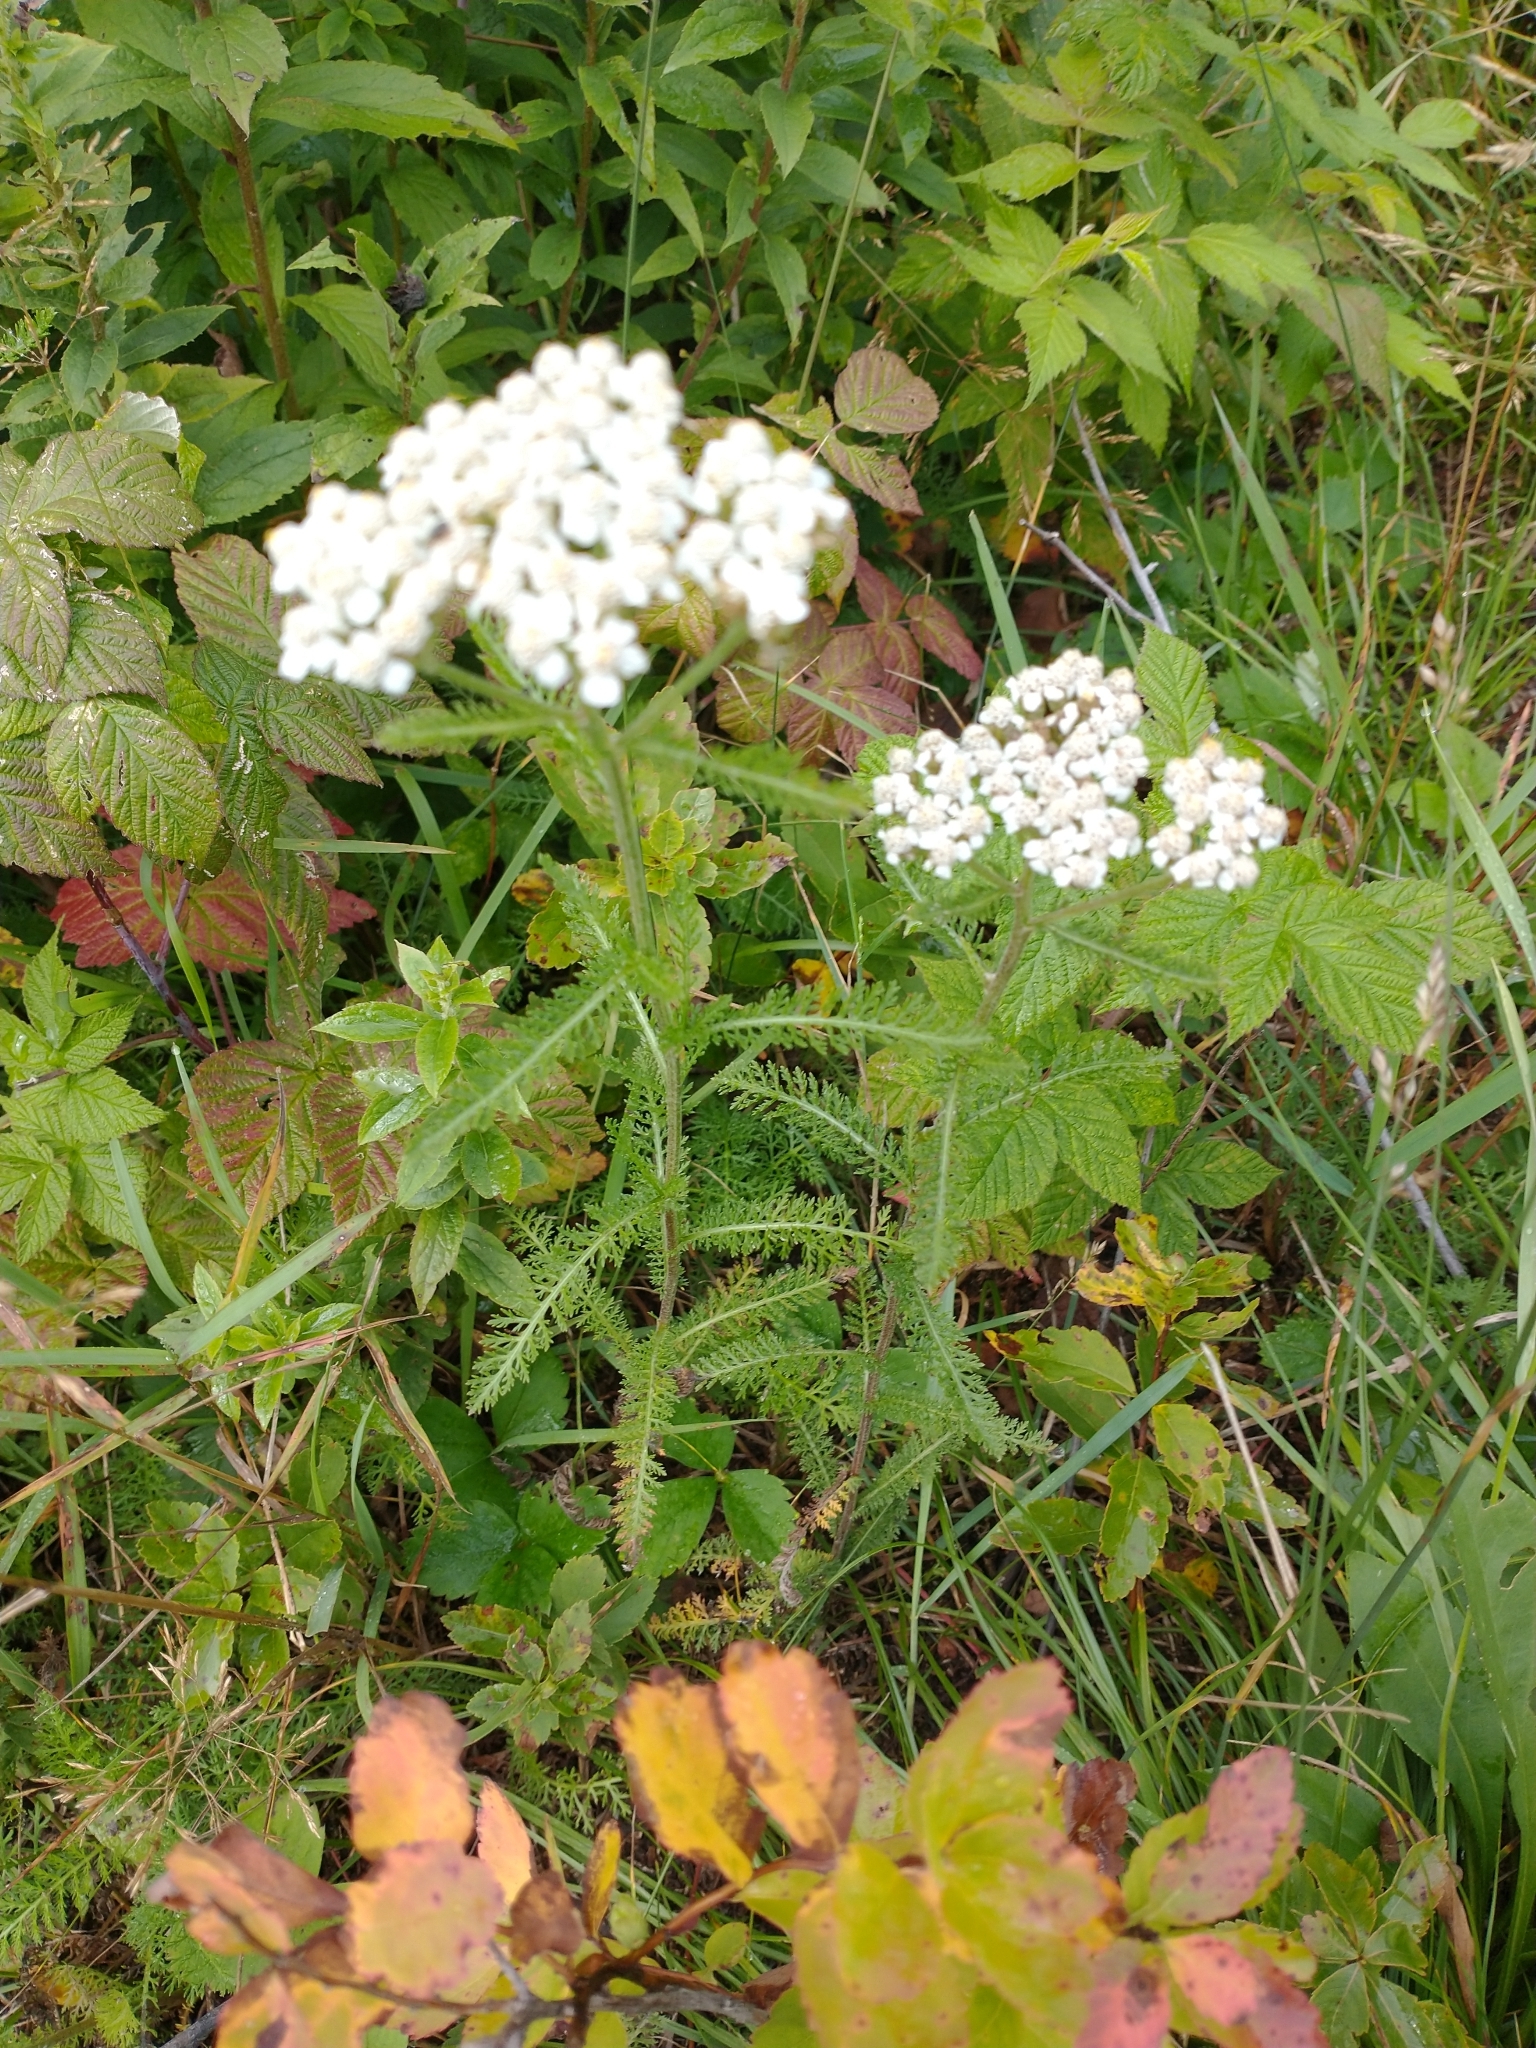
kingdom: Plantae
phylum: Tracheophyta
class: Magnoliopsida
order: Asterales
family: Asteraceae
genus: Achillea
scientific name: Achillea millefolium
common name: Yarrow
